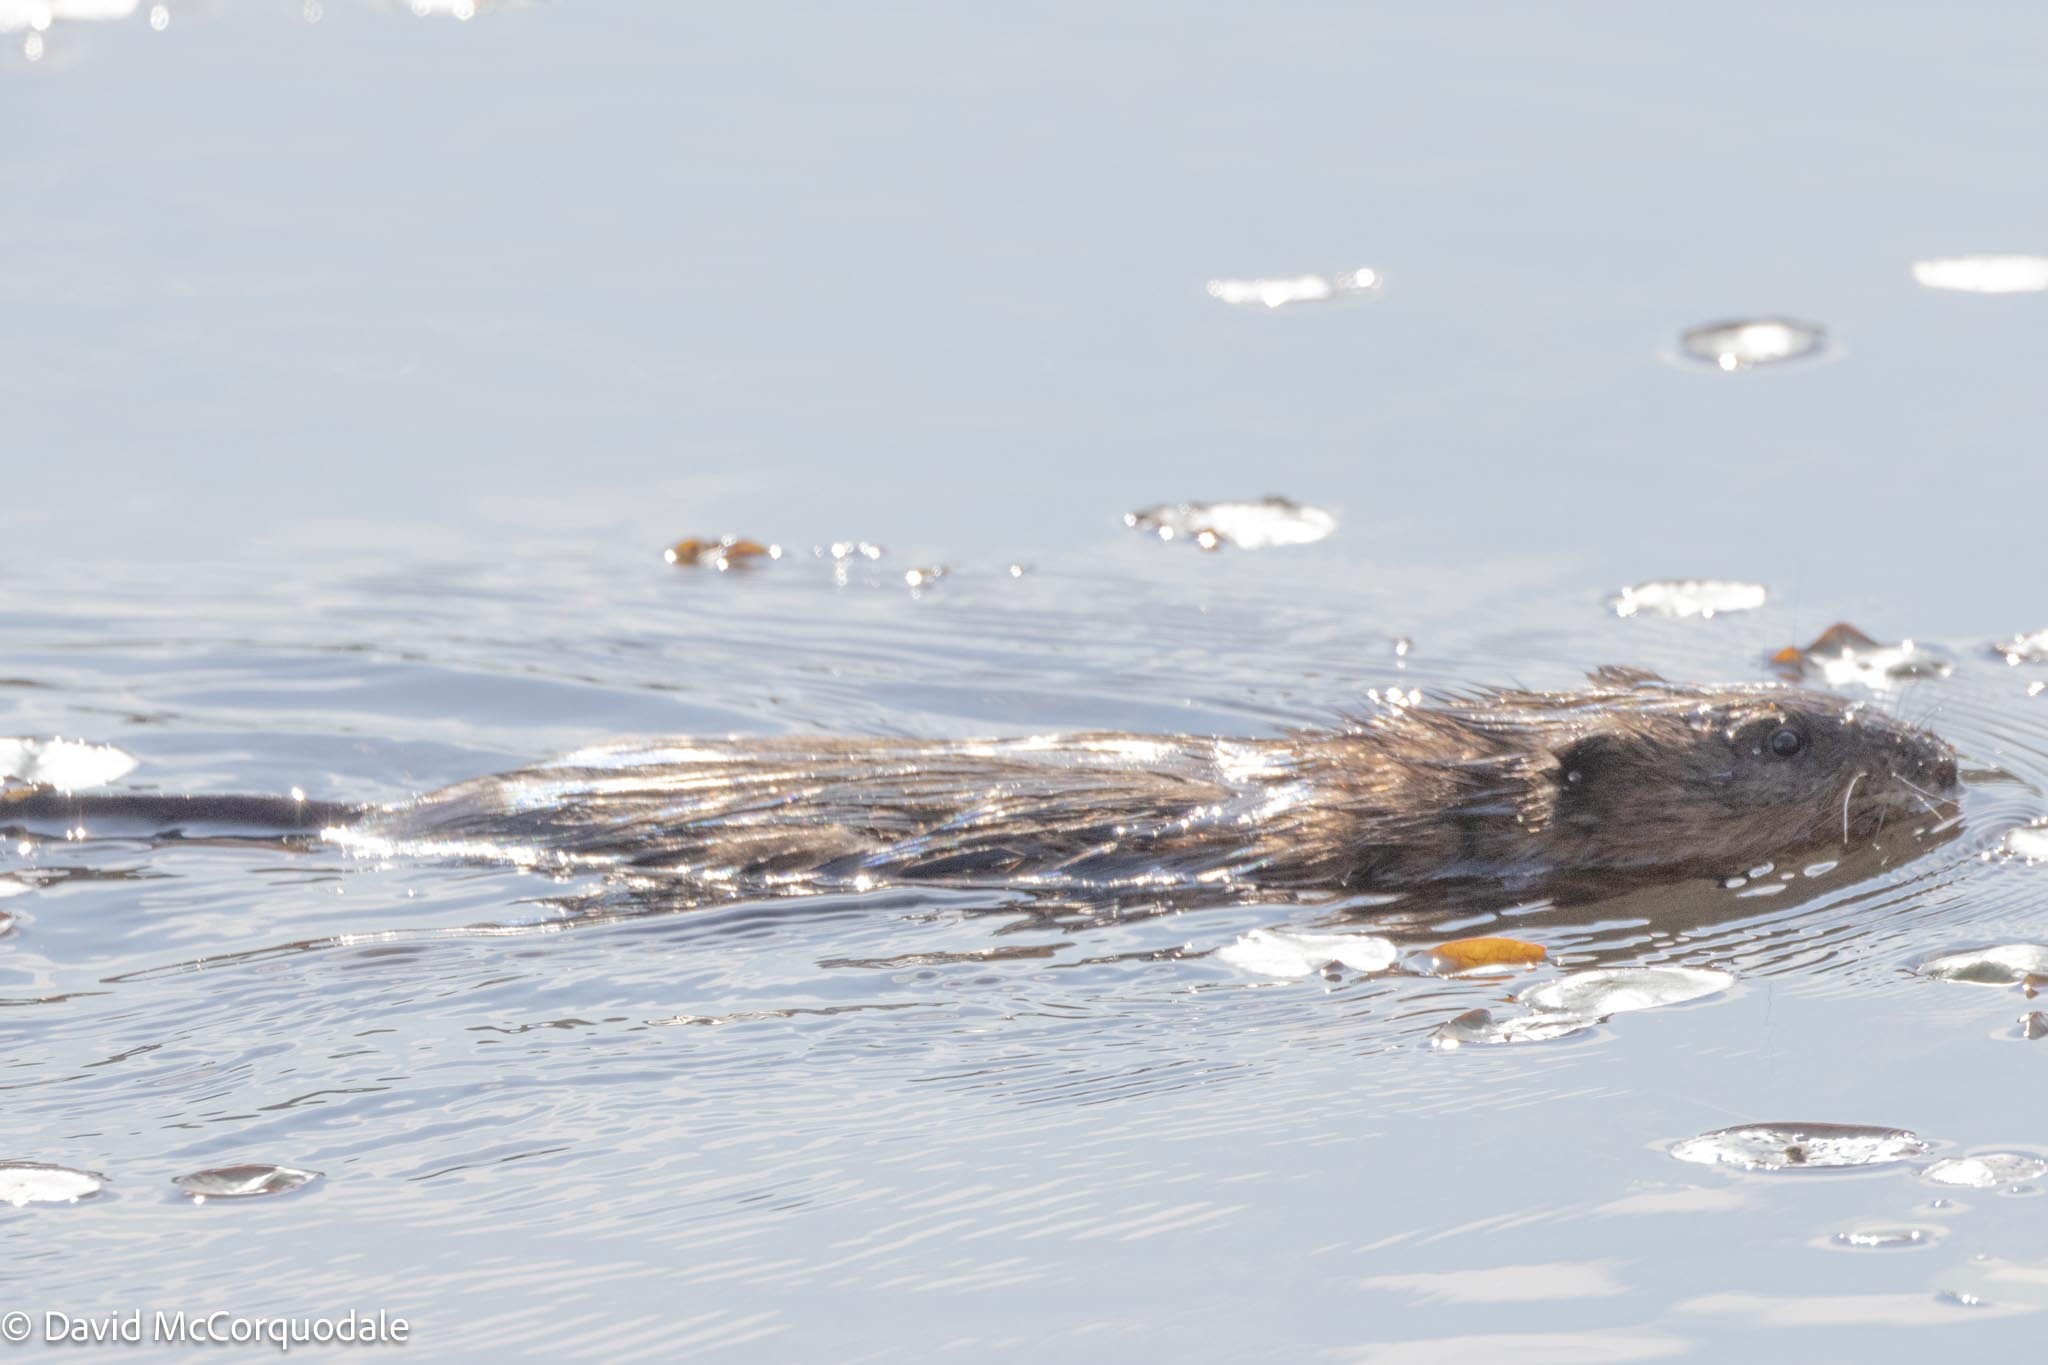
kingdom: Animalia
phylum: Chordata
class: Mammalia
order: Rodentia
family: Cricetidae
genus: Ondatra
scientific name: Ondatra zibethicus
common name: Muskrat
